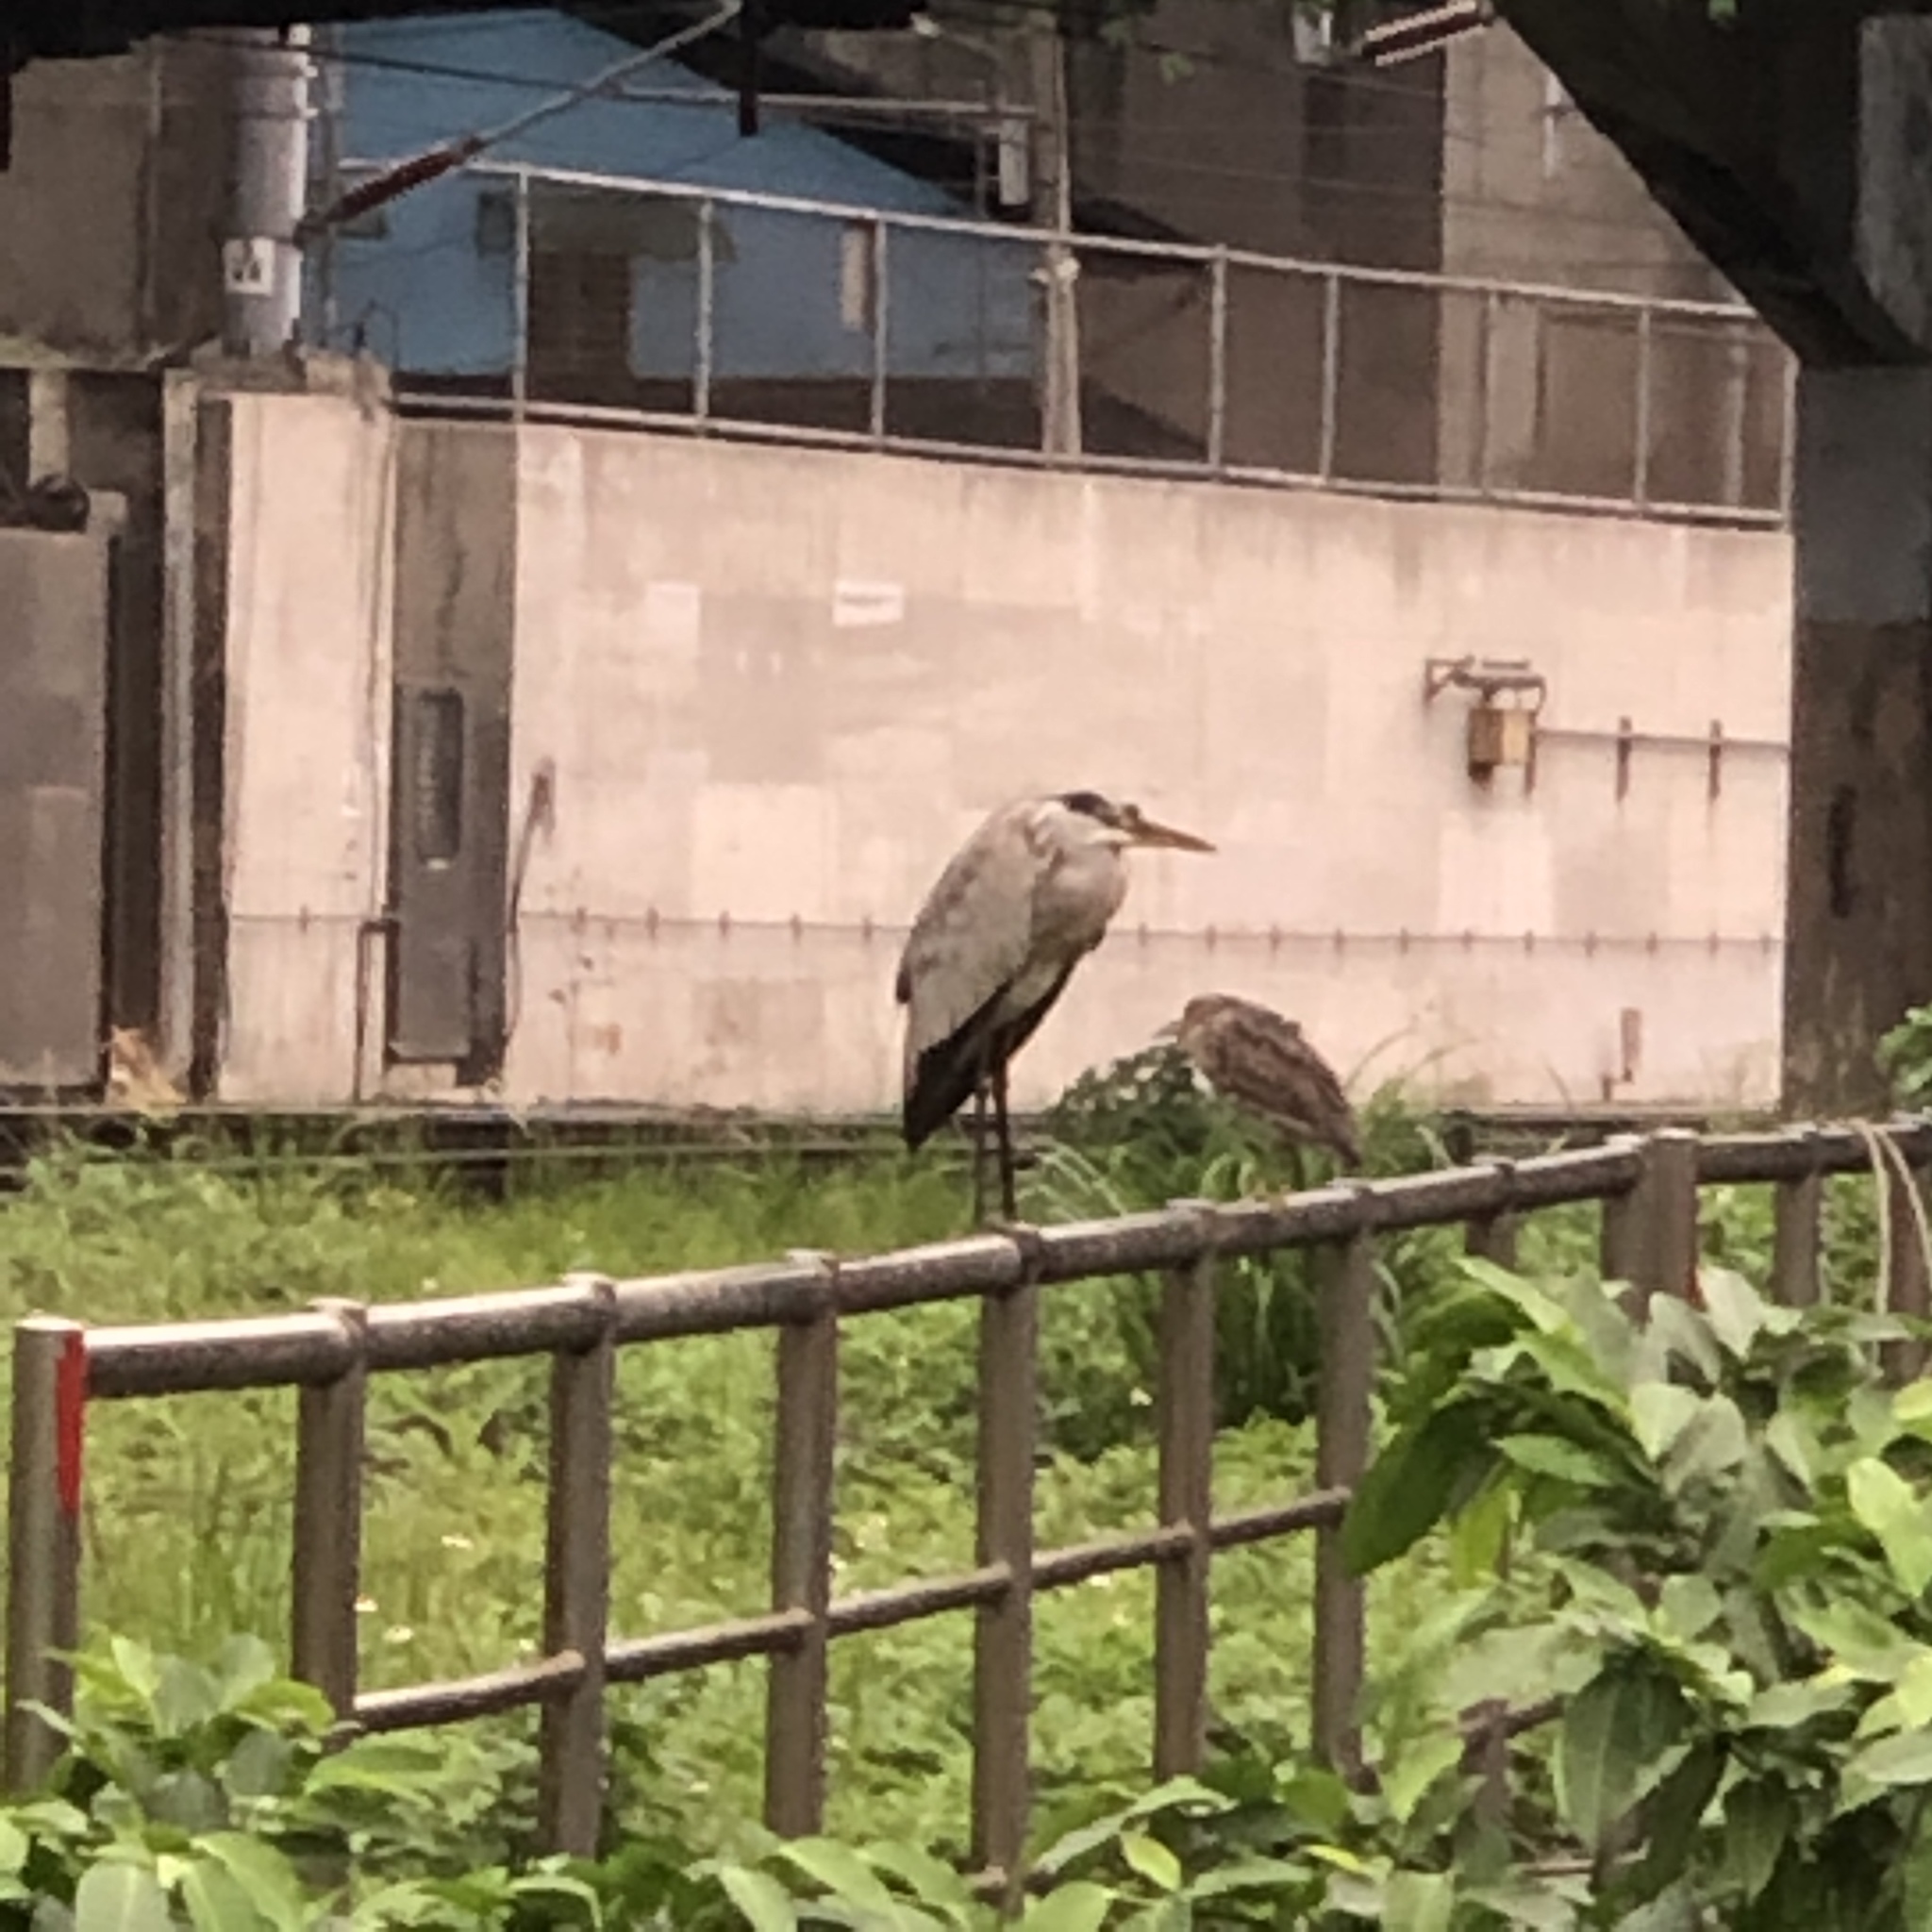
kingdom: Animalia
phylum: Chordata
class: Aves
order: Pelecaniformes
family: Ardeidae
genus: Ardea
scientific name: Ardea cinerea
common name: Grey heron
